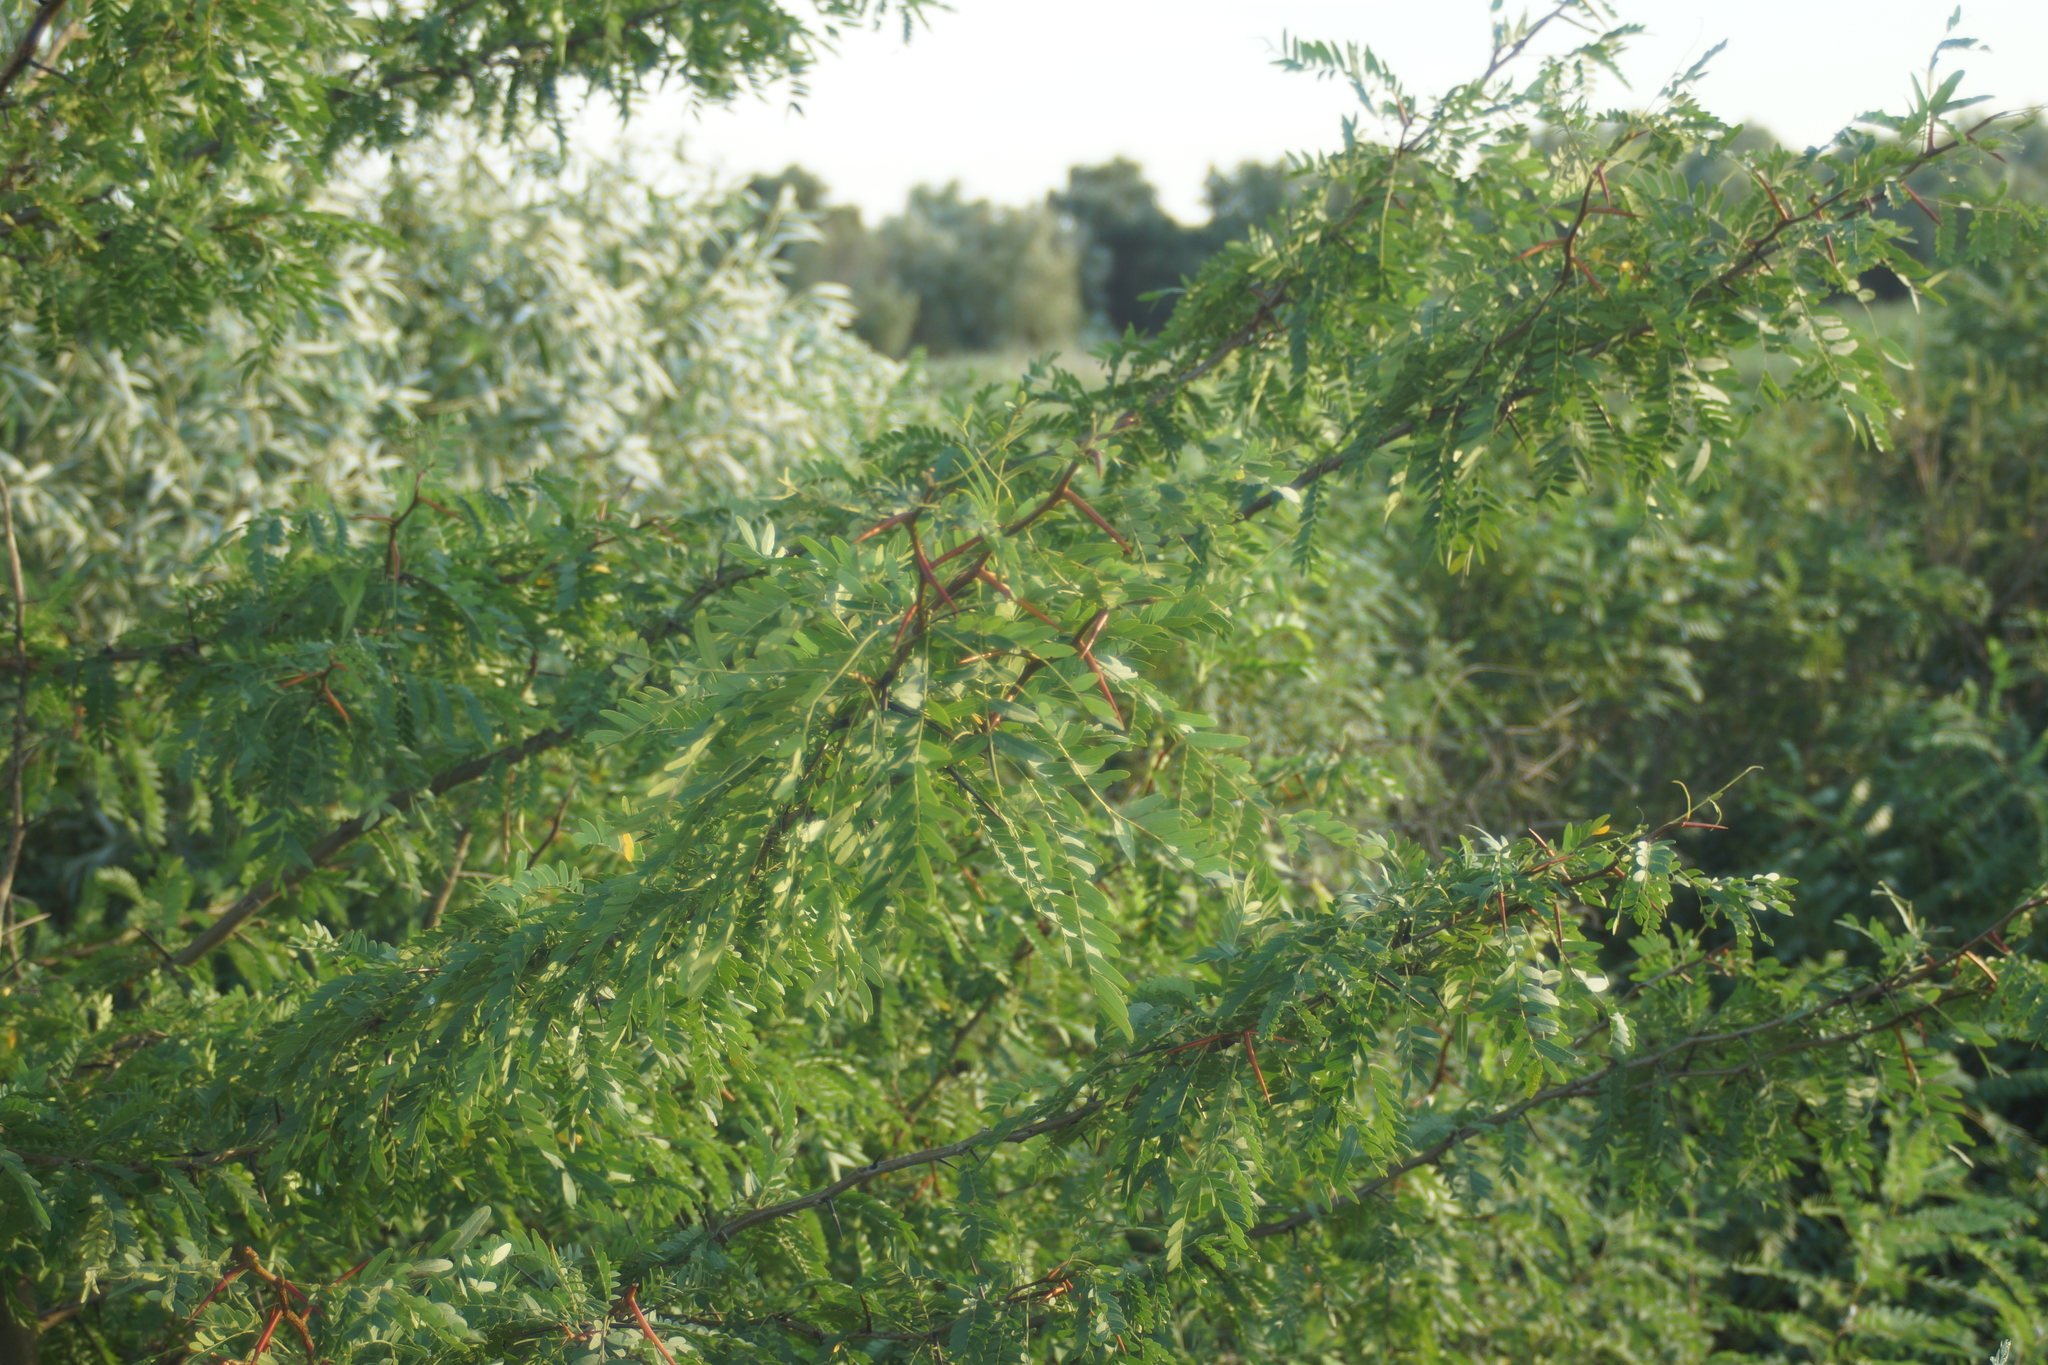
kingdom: Plantae
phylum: Tracheophyta
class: Magnoliopsida
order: Fabales
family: Fabaceae
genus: Gleditsia
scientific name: Gleditsia triacanthos
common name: Common honeylocust
